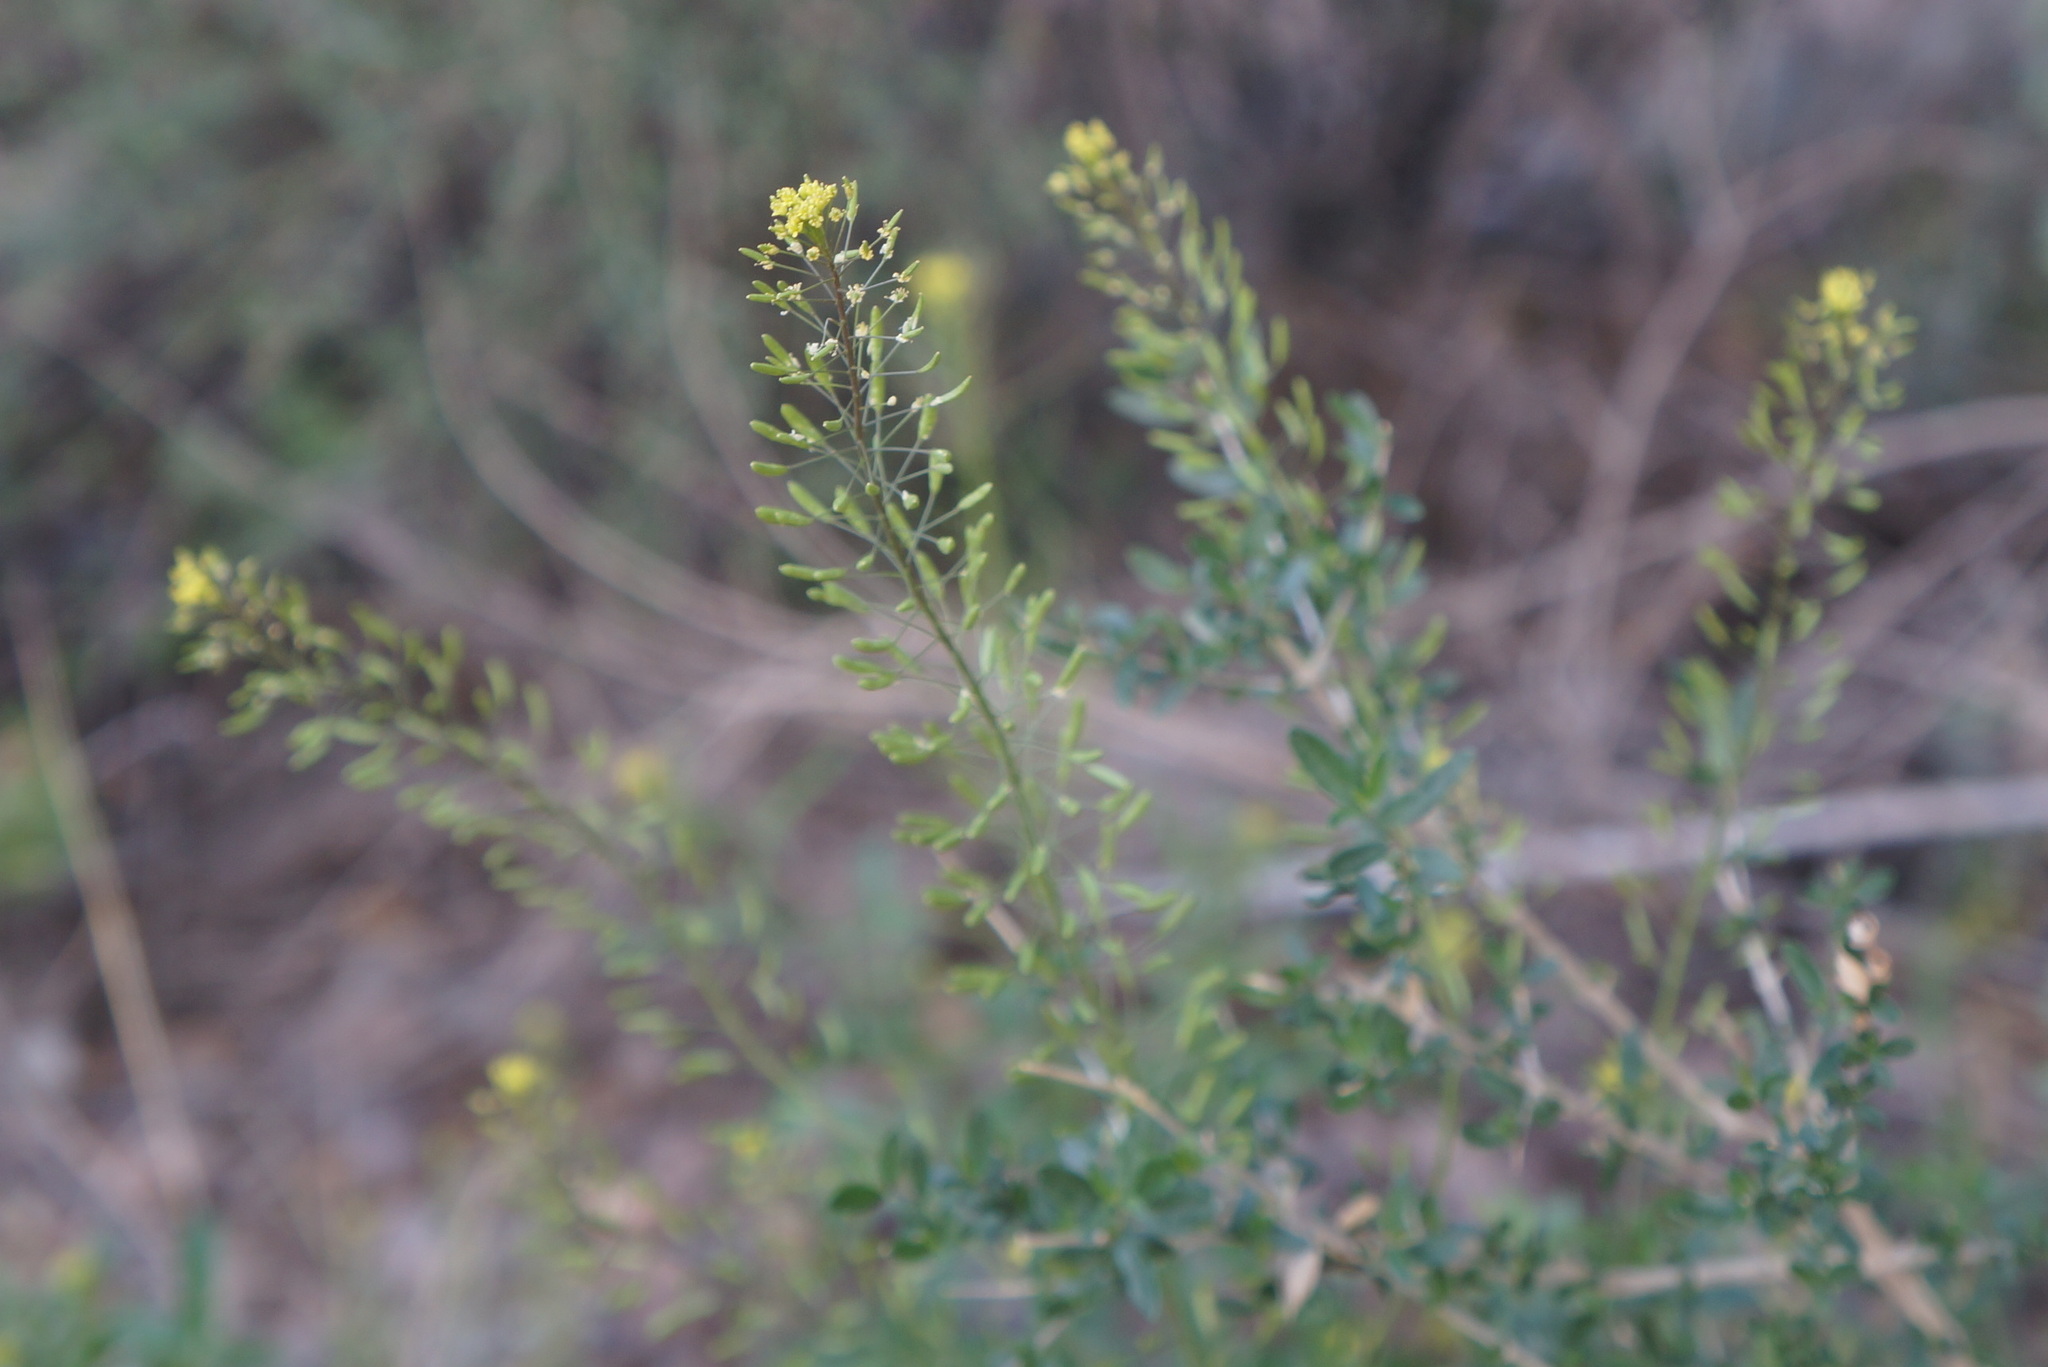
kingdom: Plantae
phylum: Tracheophyta
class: Magnoliopsida
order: Brassicales
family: Brassicaceae
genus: Descurainia
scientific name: Descurainia pinnata
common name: Western tansy mustard
